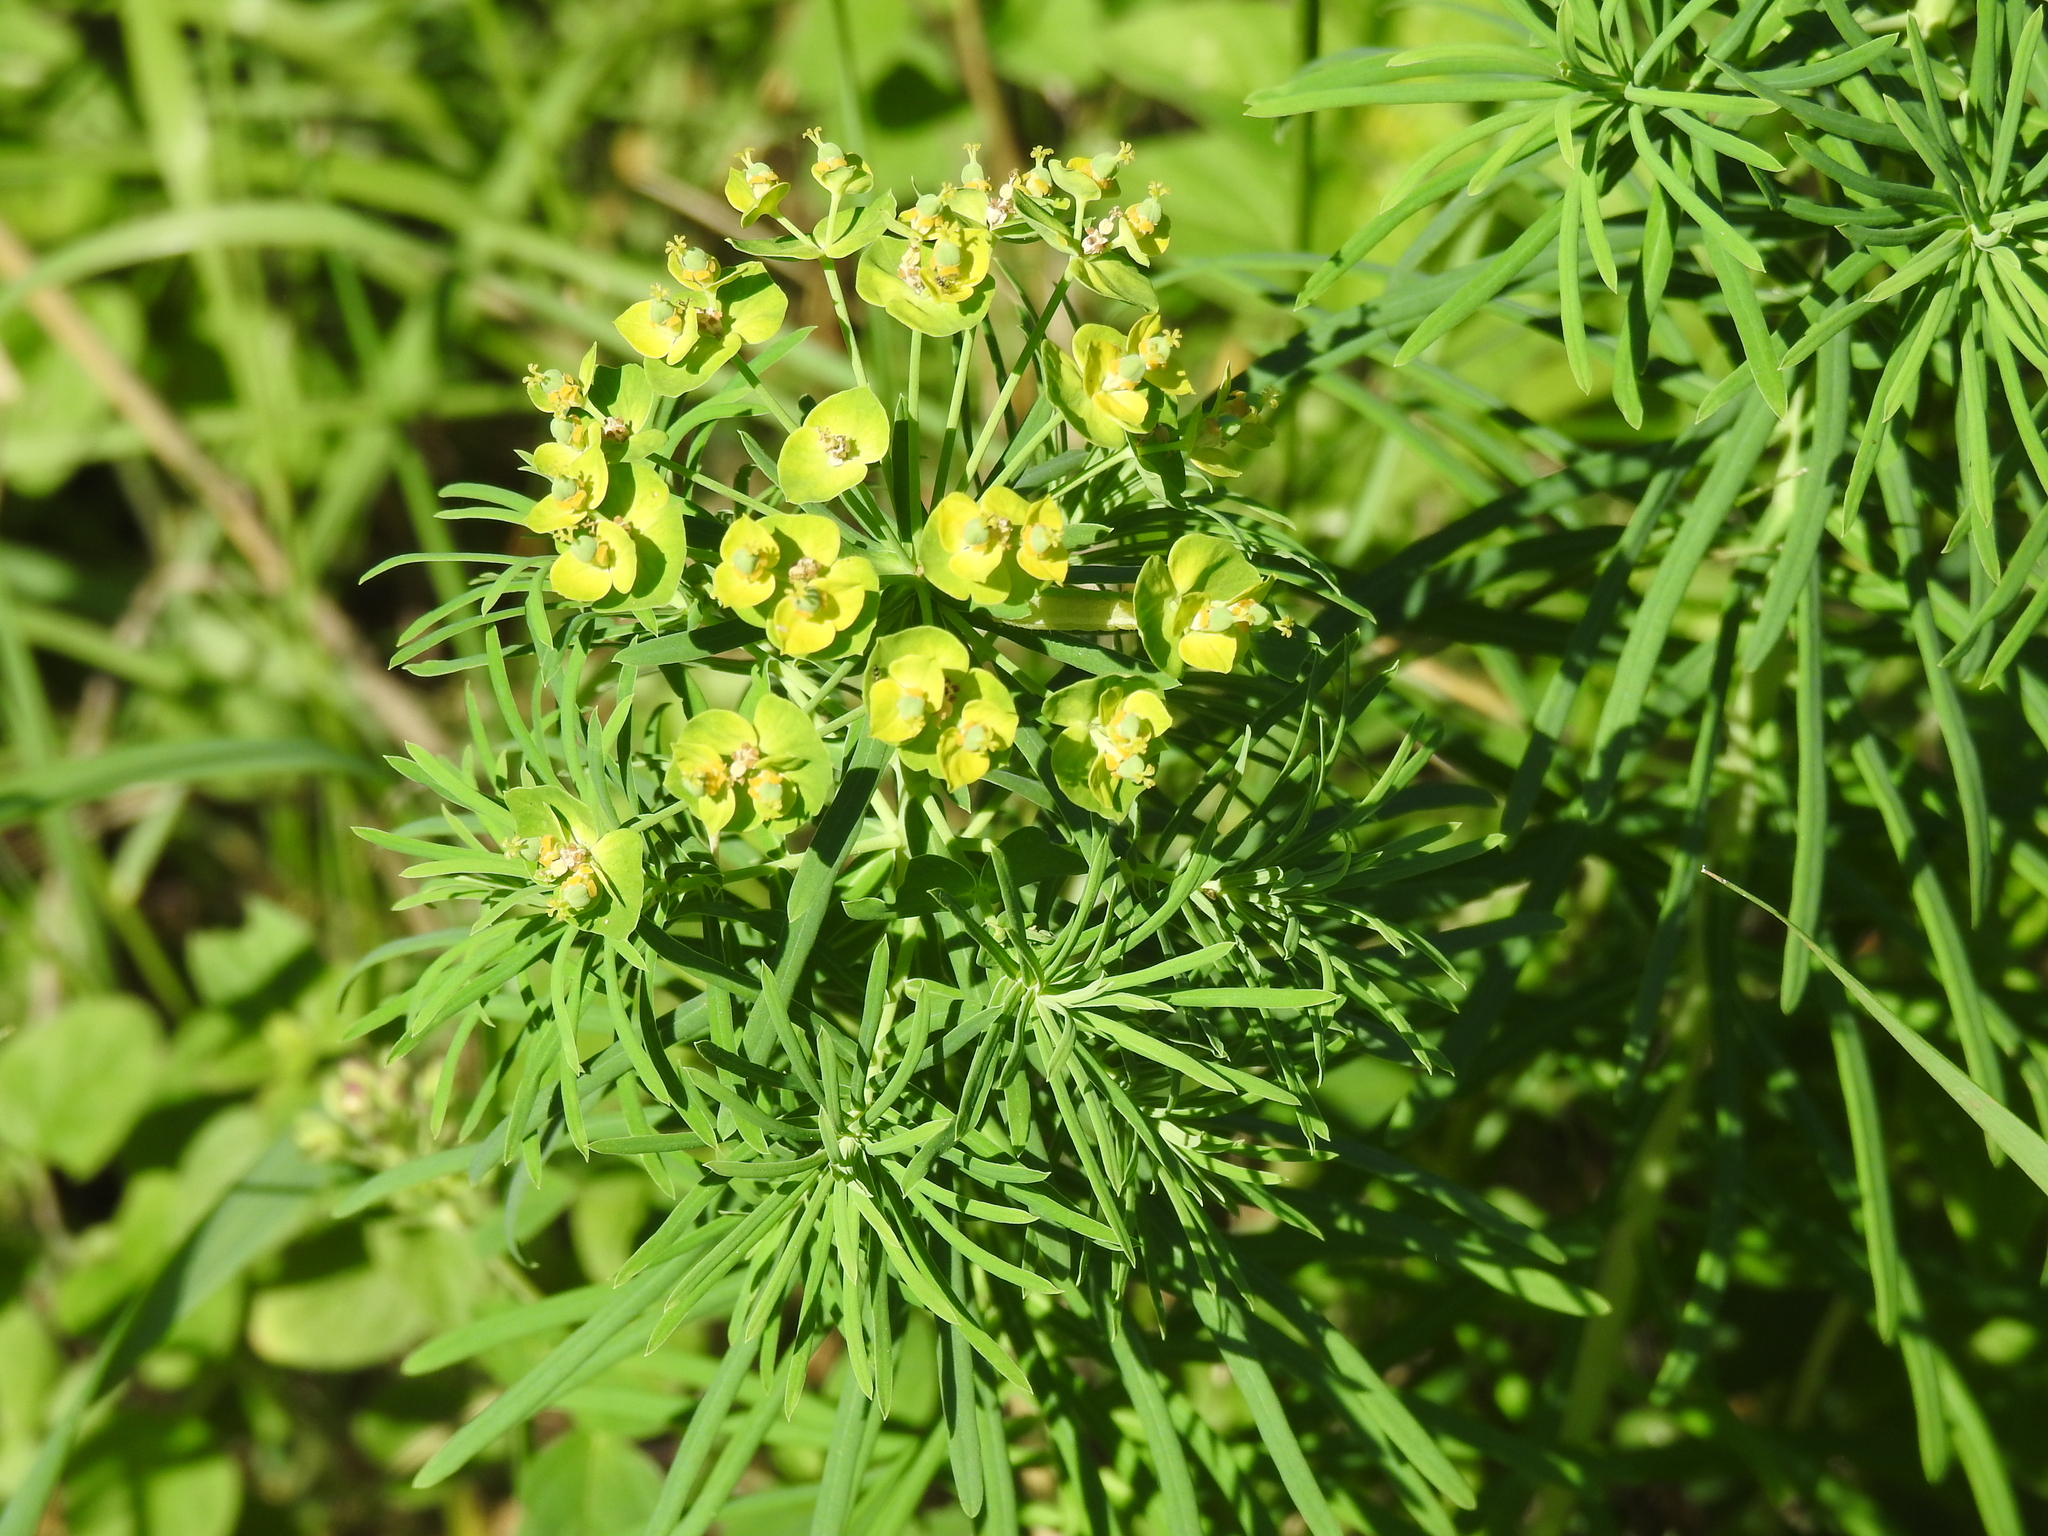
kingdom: Plantae
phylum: Tracheophyta
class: Magnoliopsida
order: Malpighiales
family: Euphorbiaceae
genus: Euphorbia
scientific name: Euphorbia cyparissias
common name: Cypress spurge
